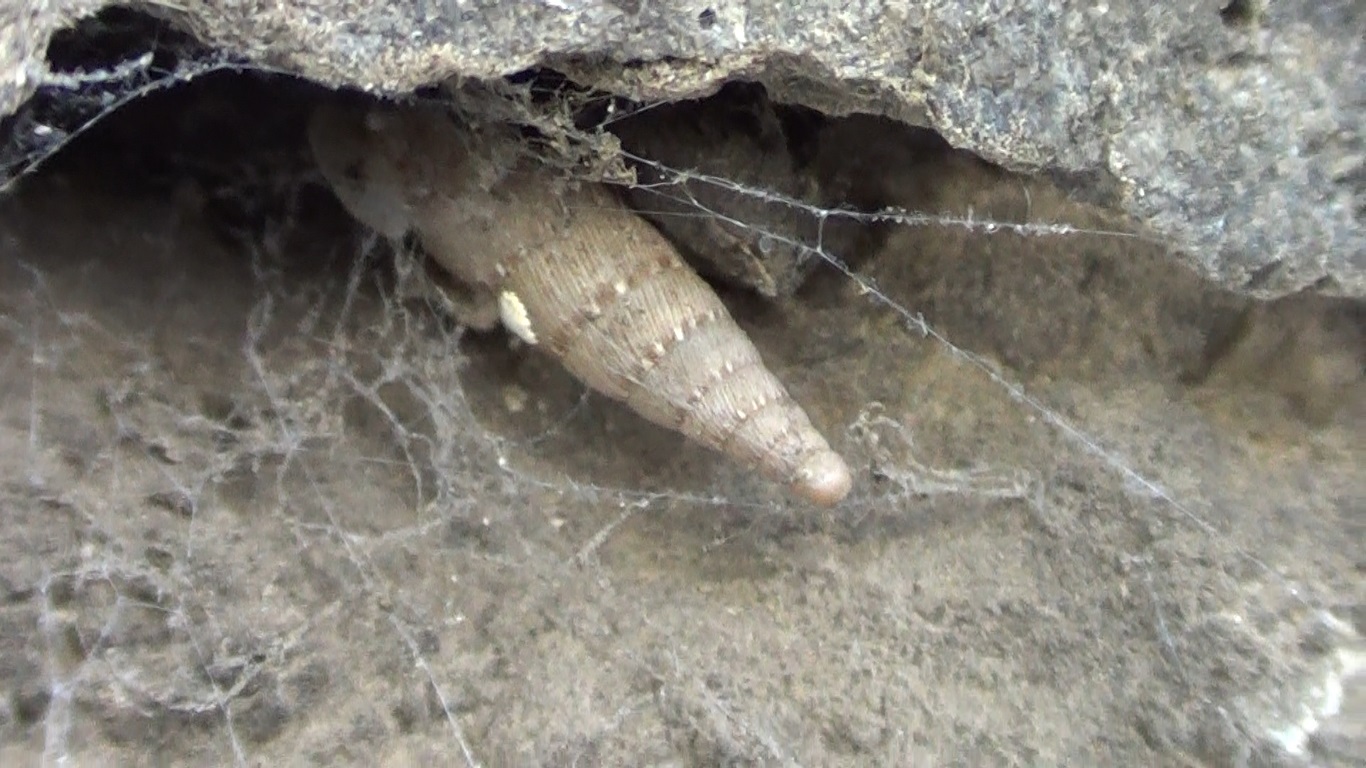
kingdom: Animalia
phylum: Mollusca
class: Gastropoda
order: Stylommatophora
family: Clausiliidae
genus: Papillifera
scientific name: Papillifera papillaris
